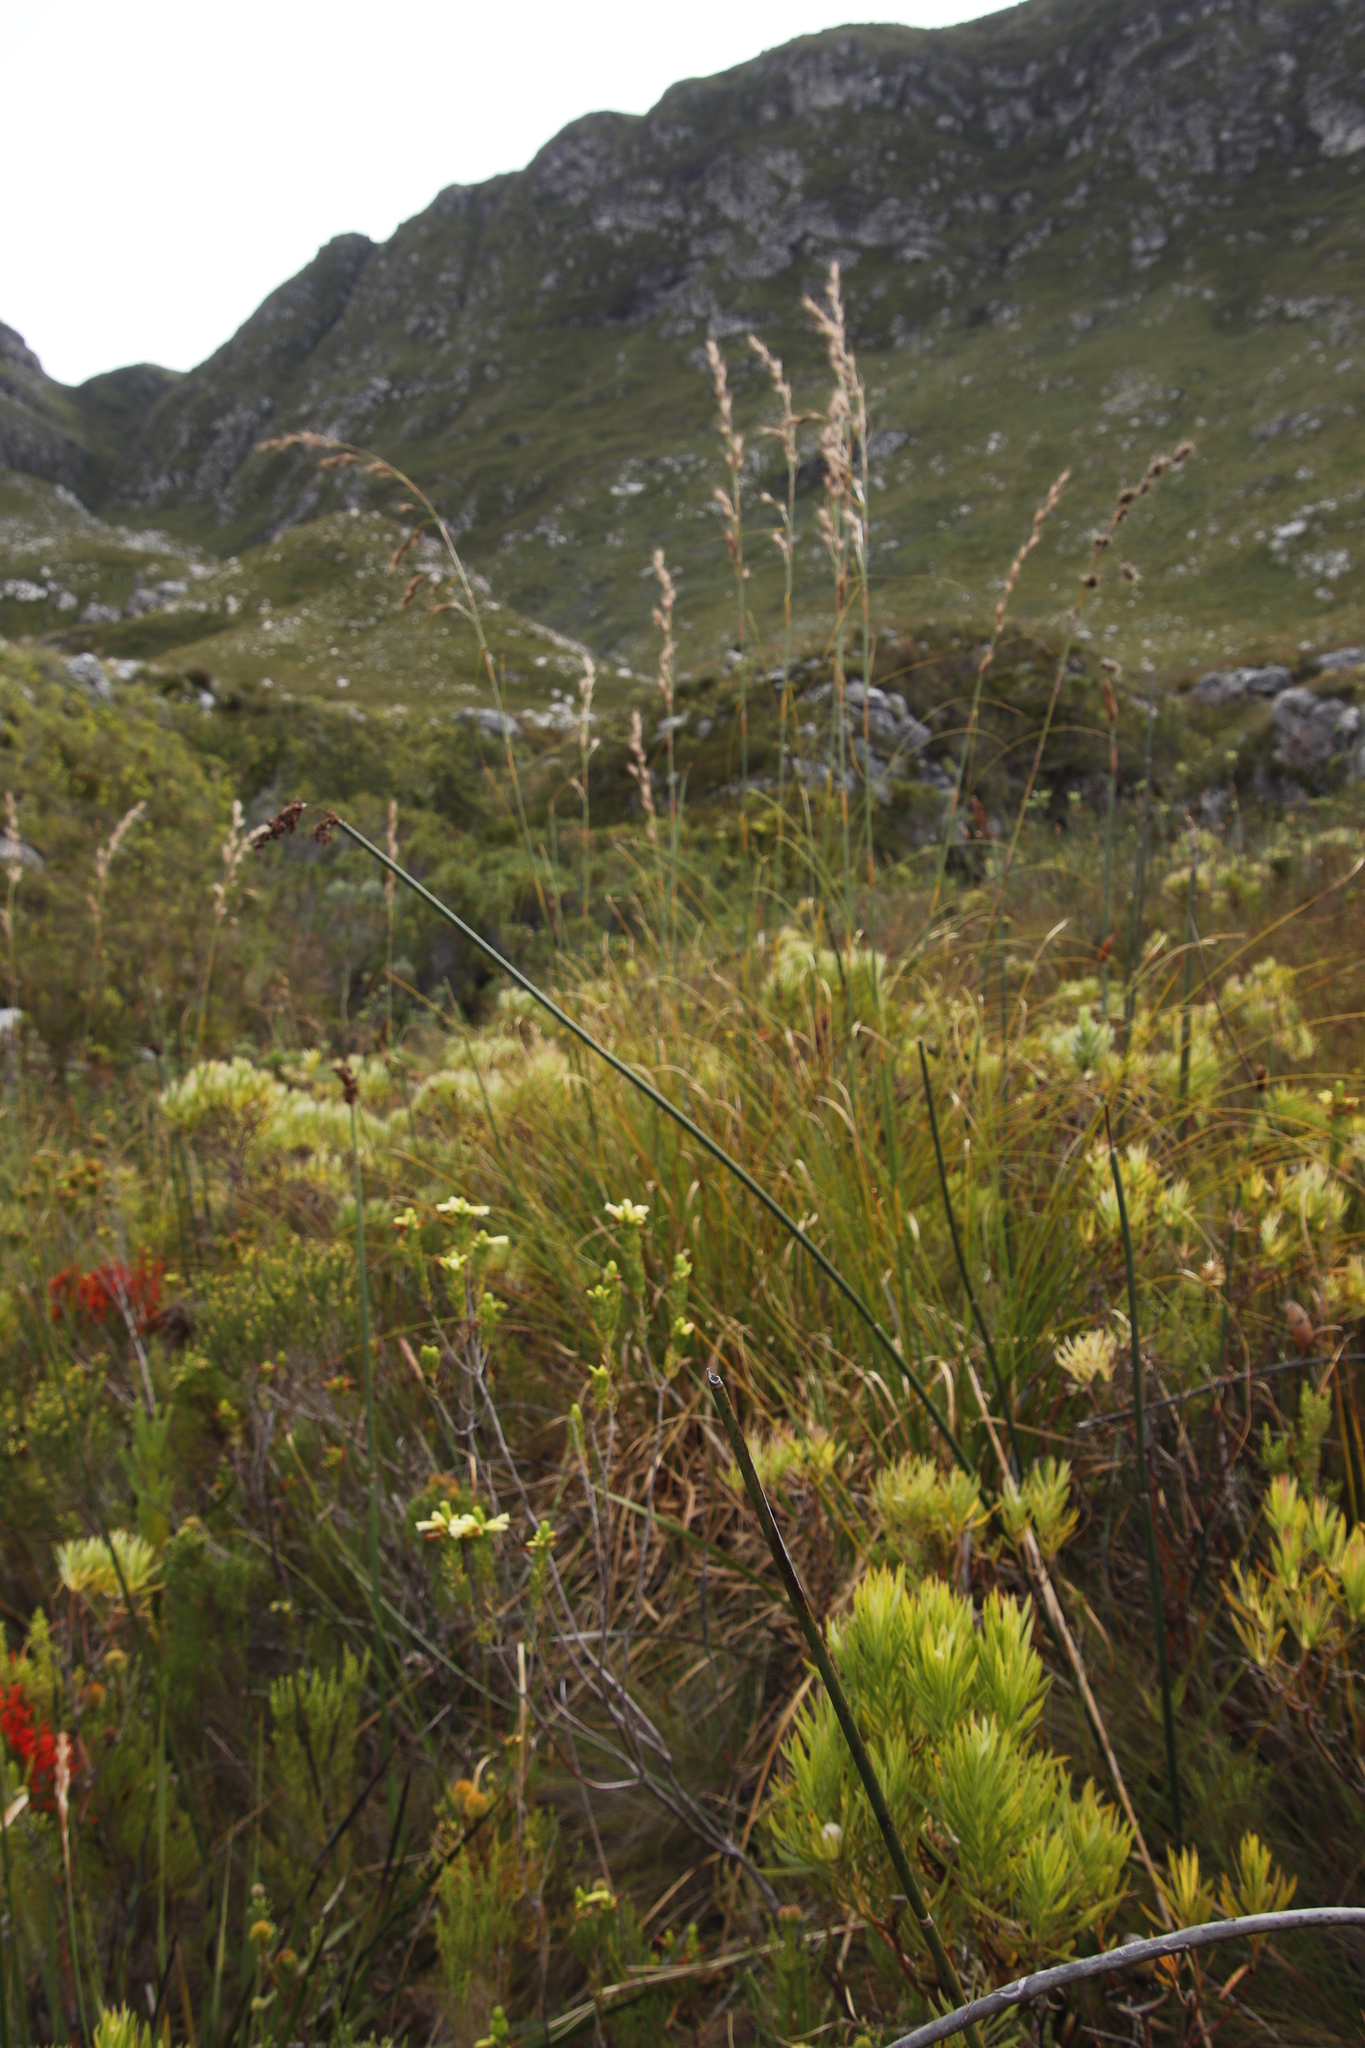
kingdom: Plantae
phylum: Tracheophyta
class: Liliopsida
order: Poales
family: Cyperaceae
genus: Tetraria
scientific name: Tetraria bromoides
